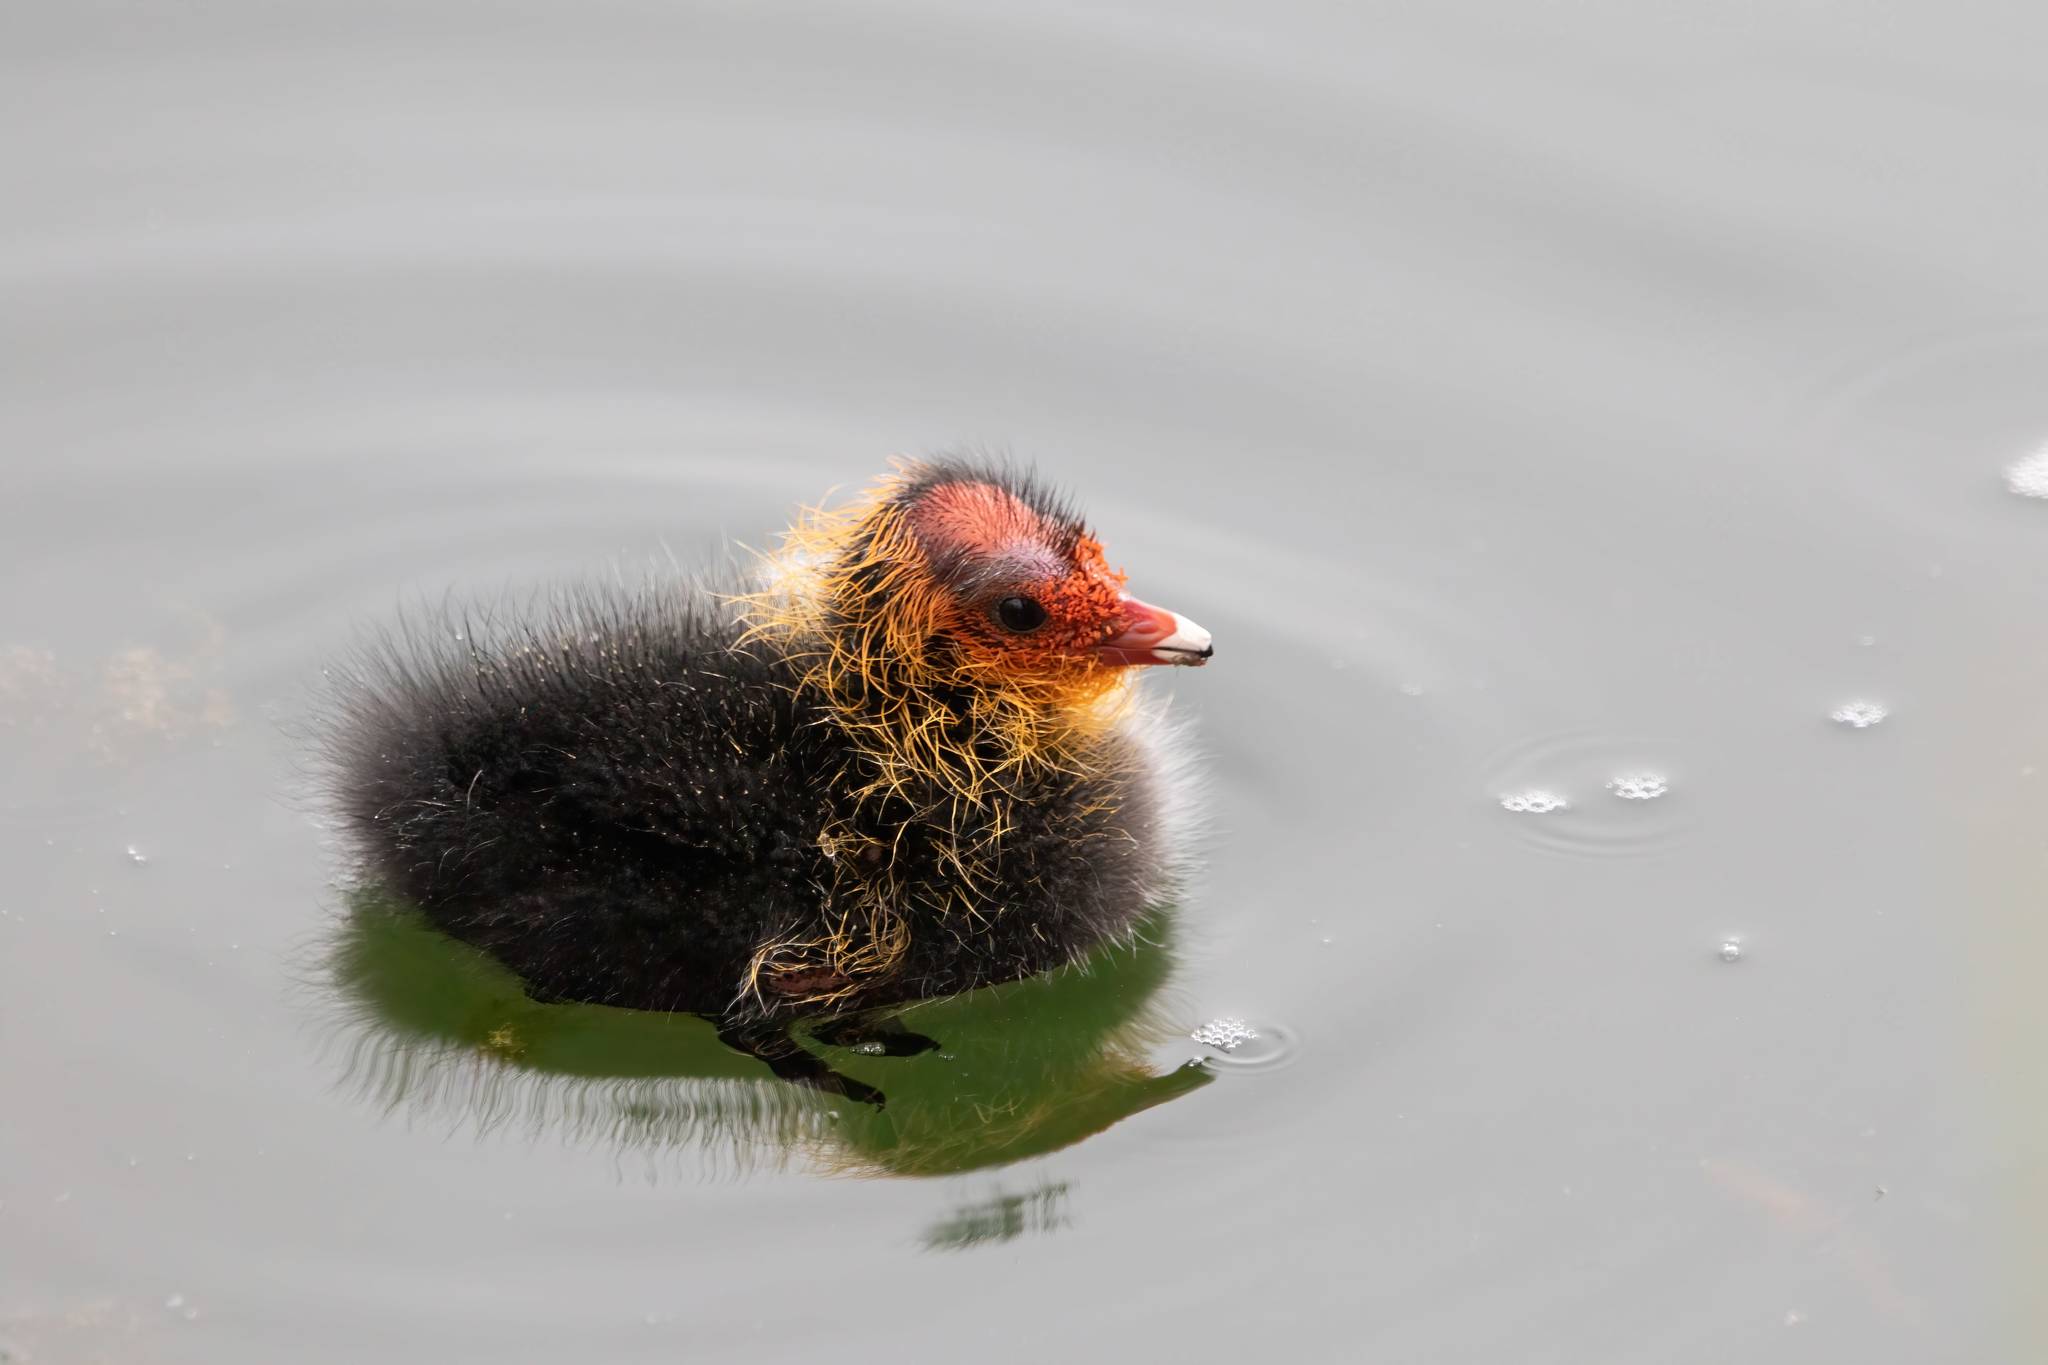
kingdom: Animalia
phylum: Chordata
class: Aves
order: Gruiformes
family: Rallidae
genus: Fulica
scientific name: Fulica atra
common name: Eurasian coot
